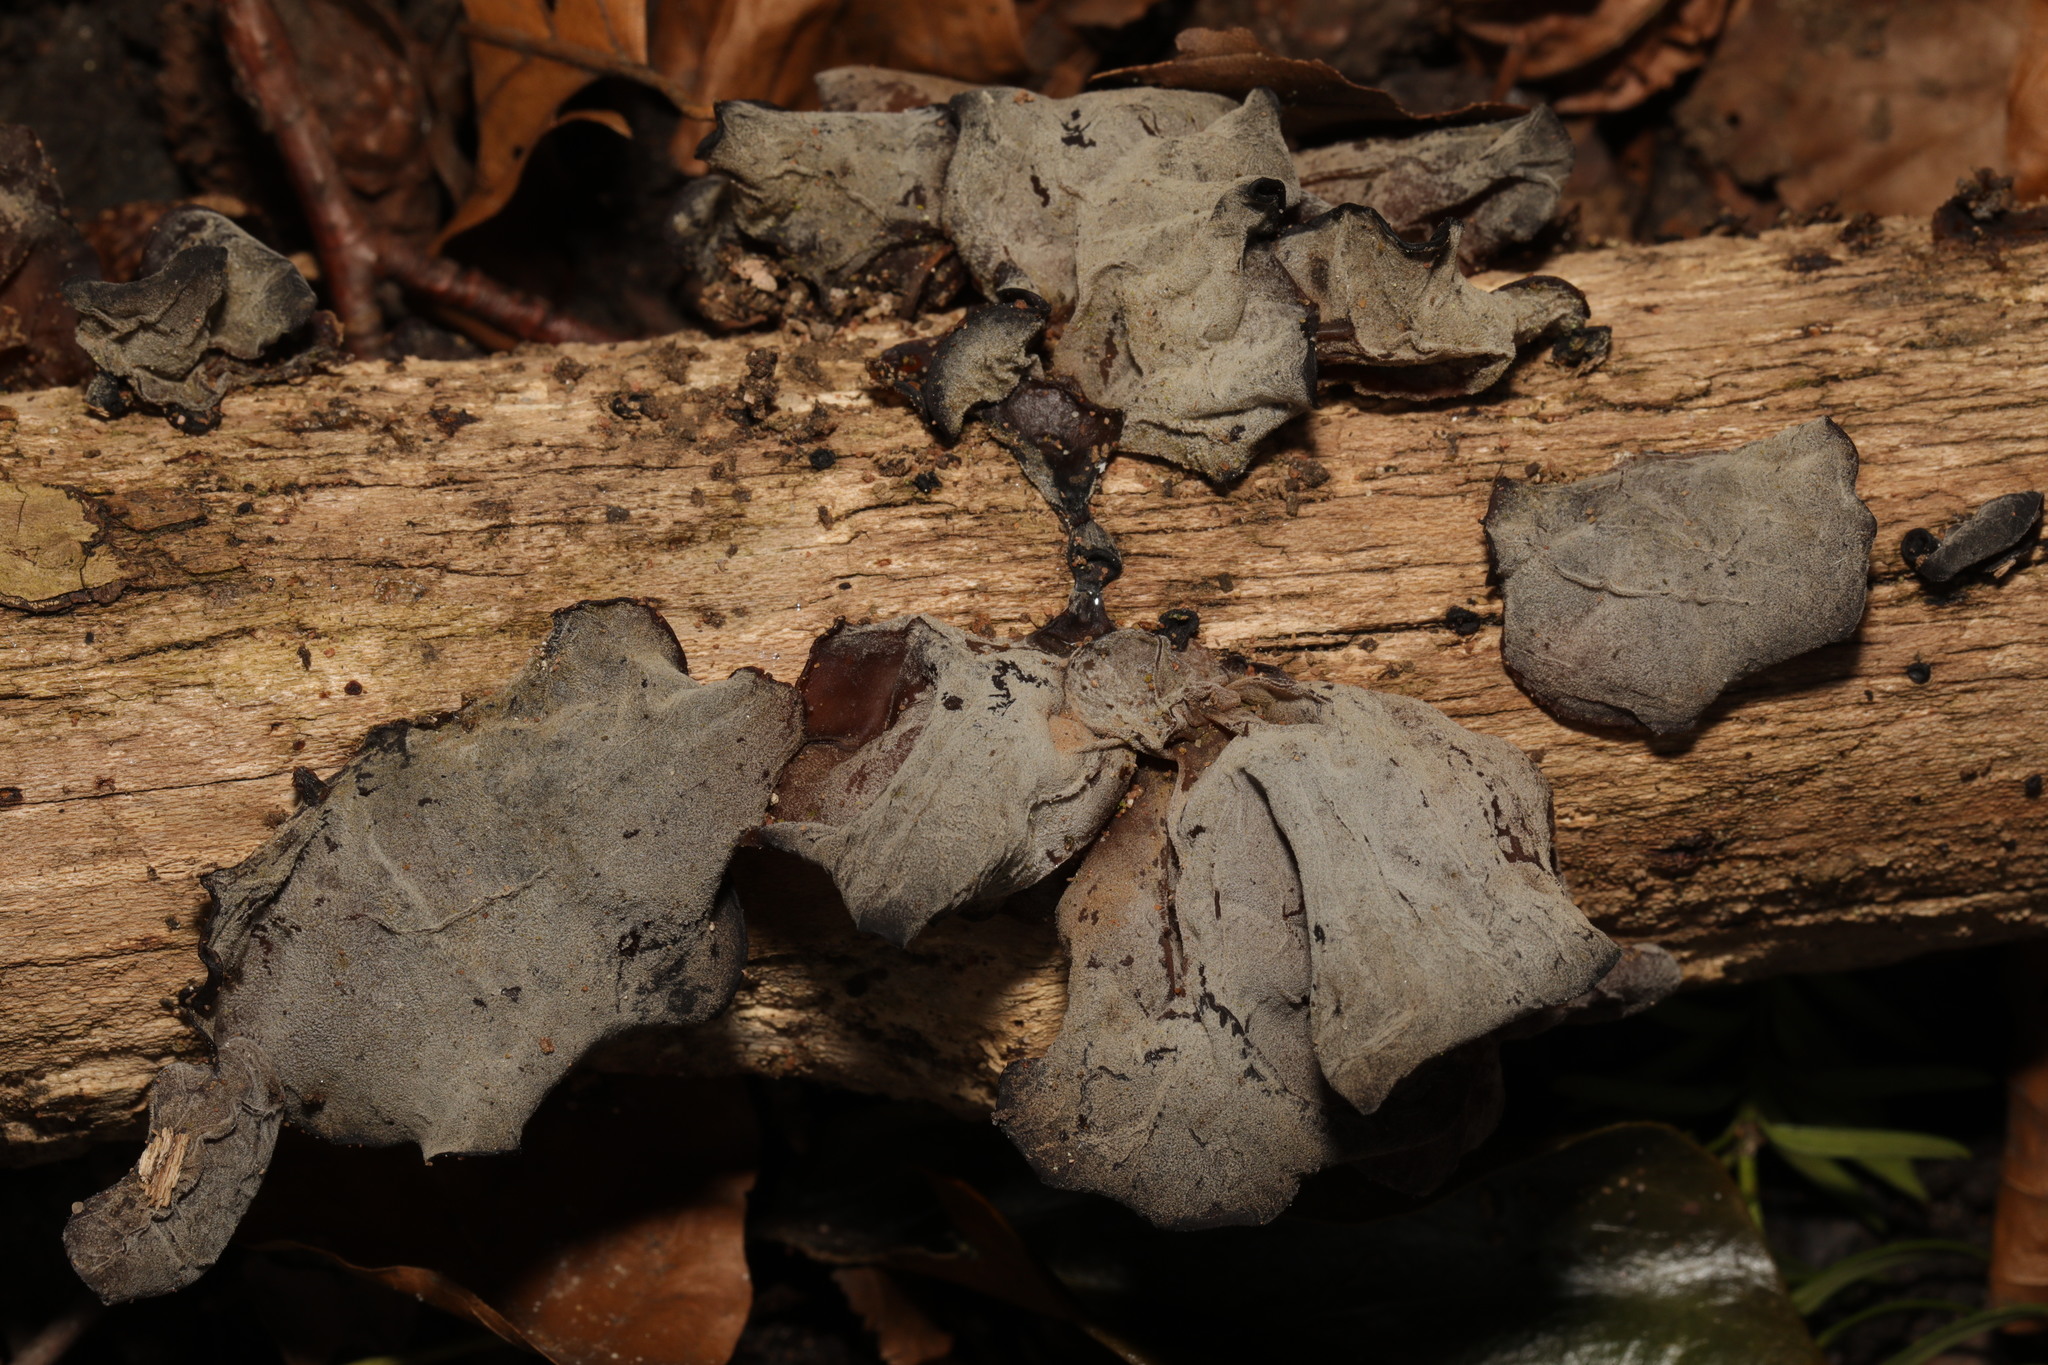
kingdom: Fungi
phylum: Basidiomycota
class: Agaricomycetes
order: Auriculariales
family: Auriculariaceae
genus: Auricularia
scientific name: Auricularia auricula-judae
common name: Jelly ear
